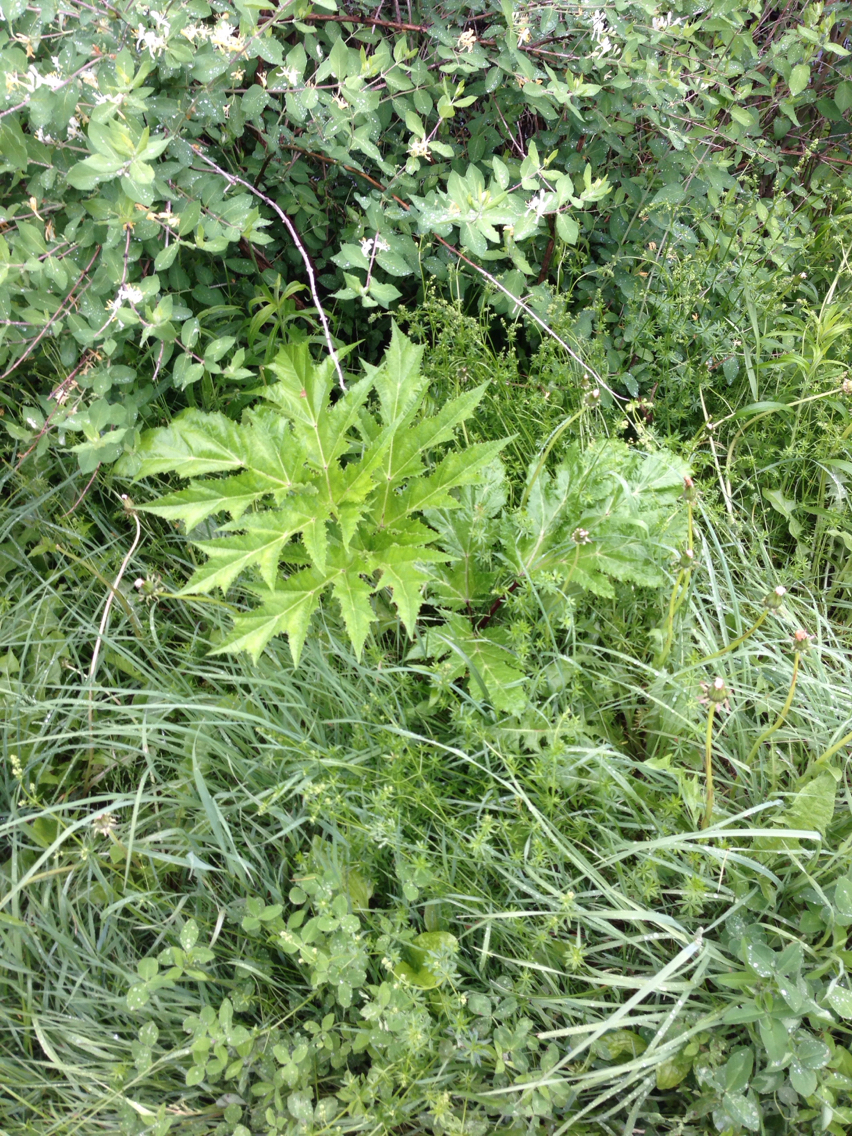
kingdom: Plantae
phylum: Tracheophyta
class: Magnoliopsida
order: Apiales
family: Apiaceae
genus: Heracleum
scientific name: Heracleum maximum
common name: American cow parsnip
